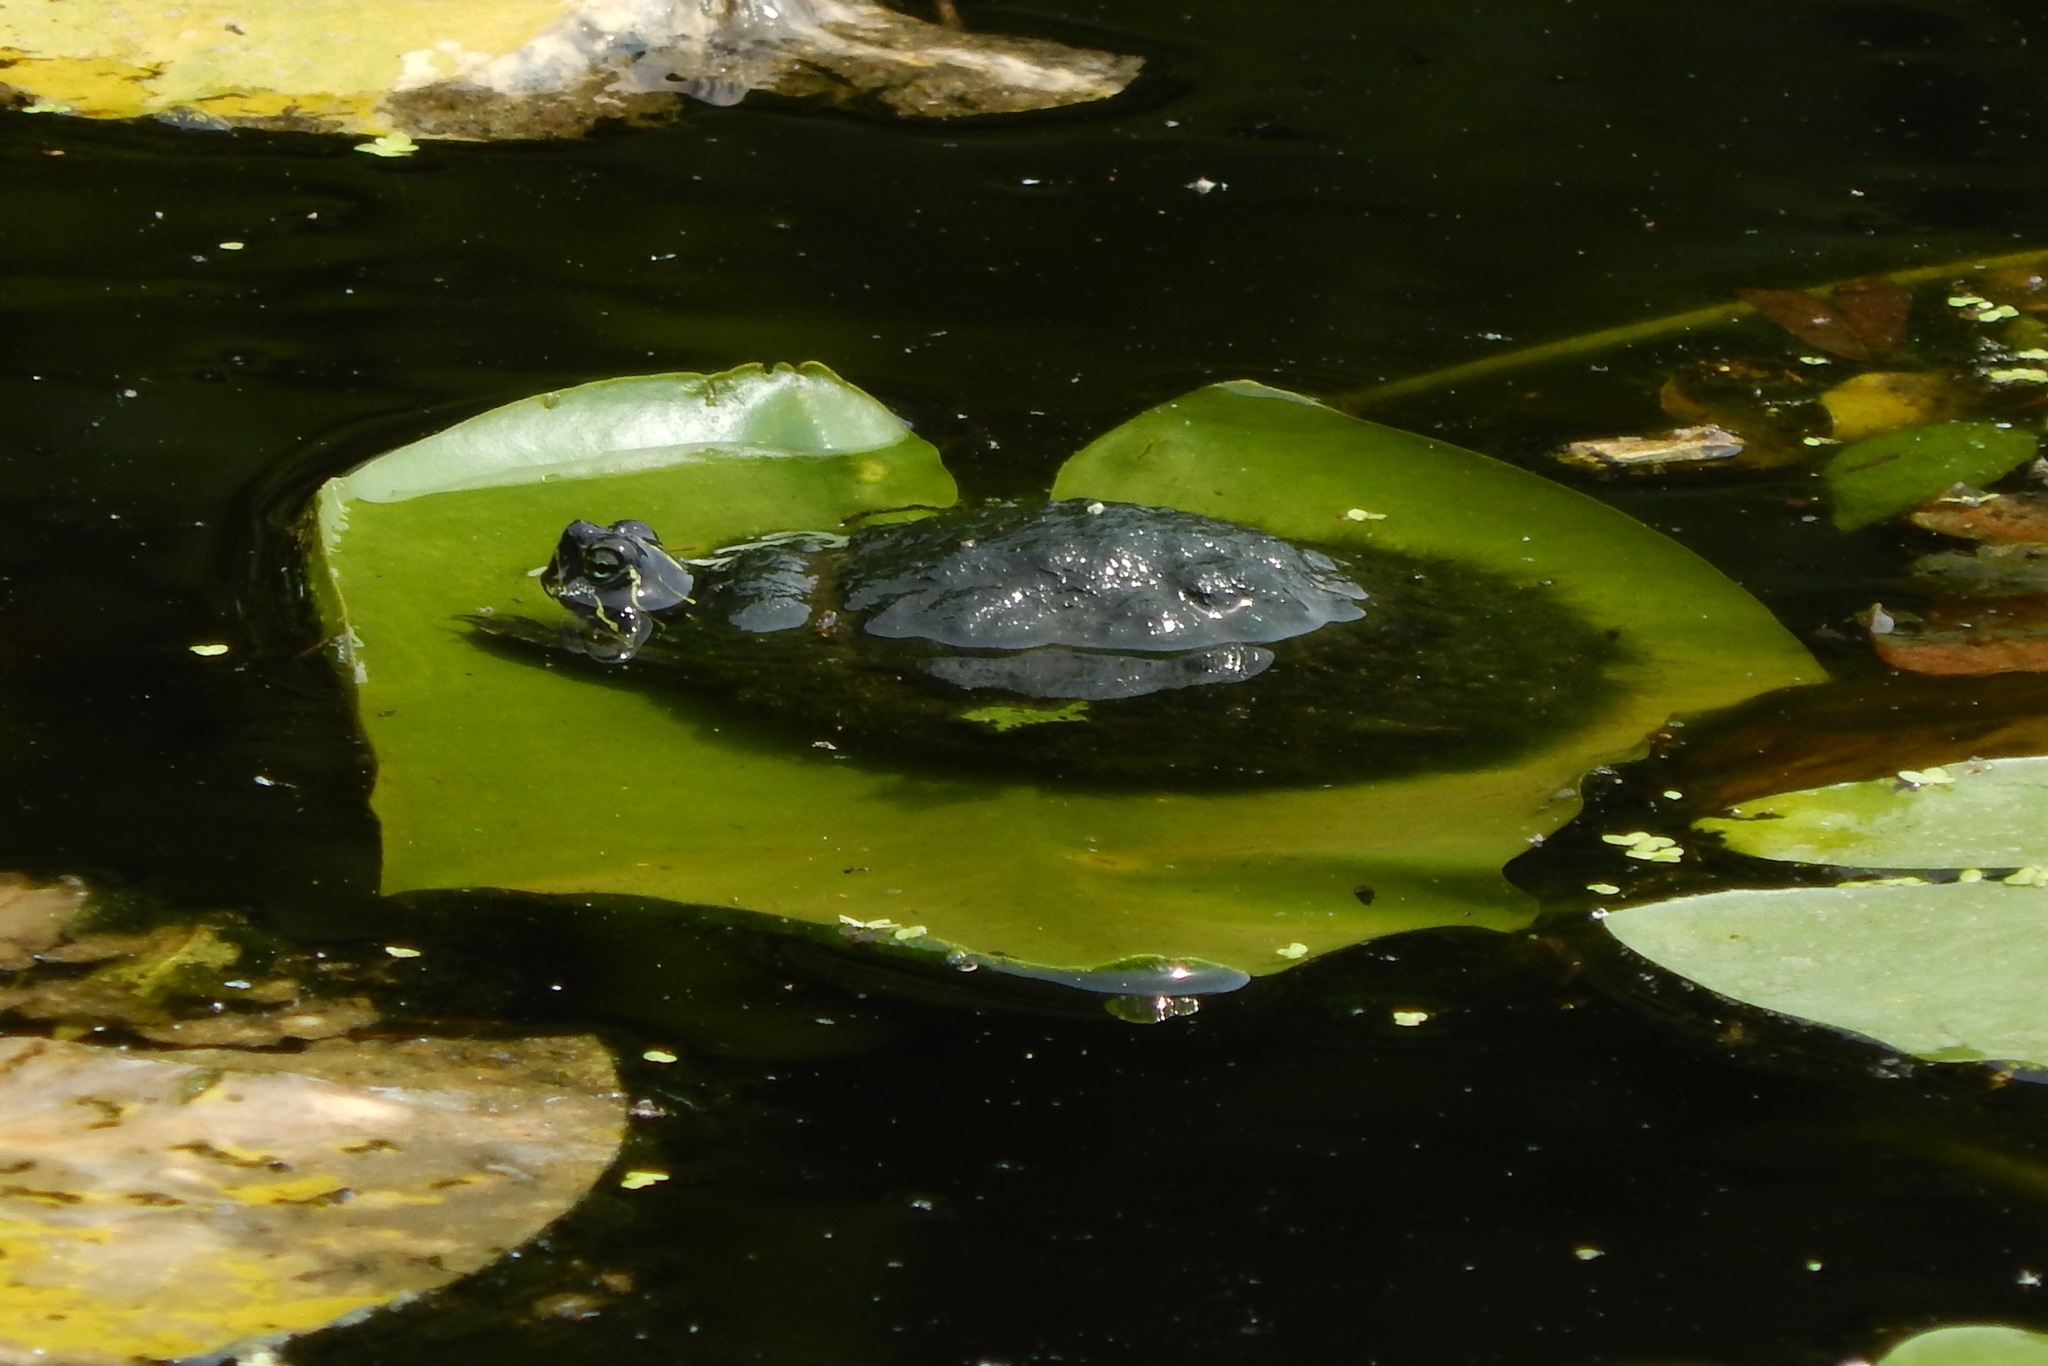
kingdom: Animalia
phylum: Chordata
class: Testudines
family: Emydidae
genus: Pseudemys
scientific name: Pseudemys rubriventris
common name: American red-bellied turtle
